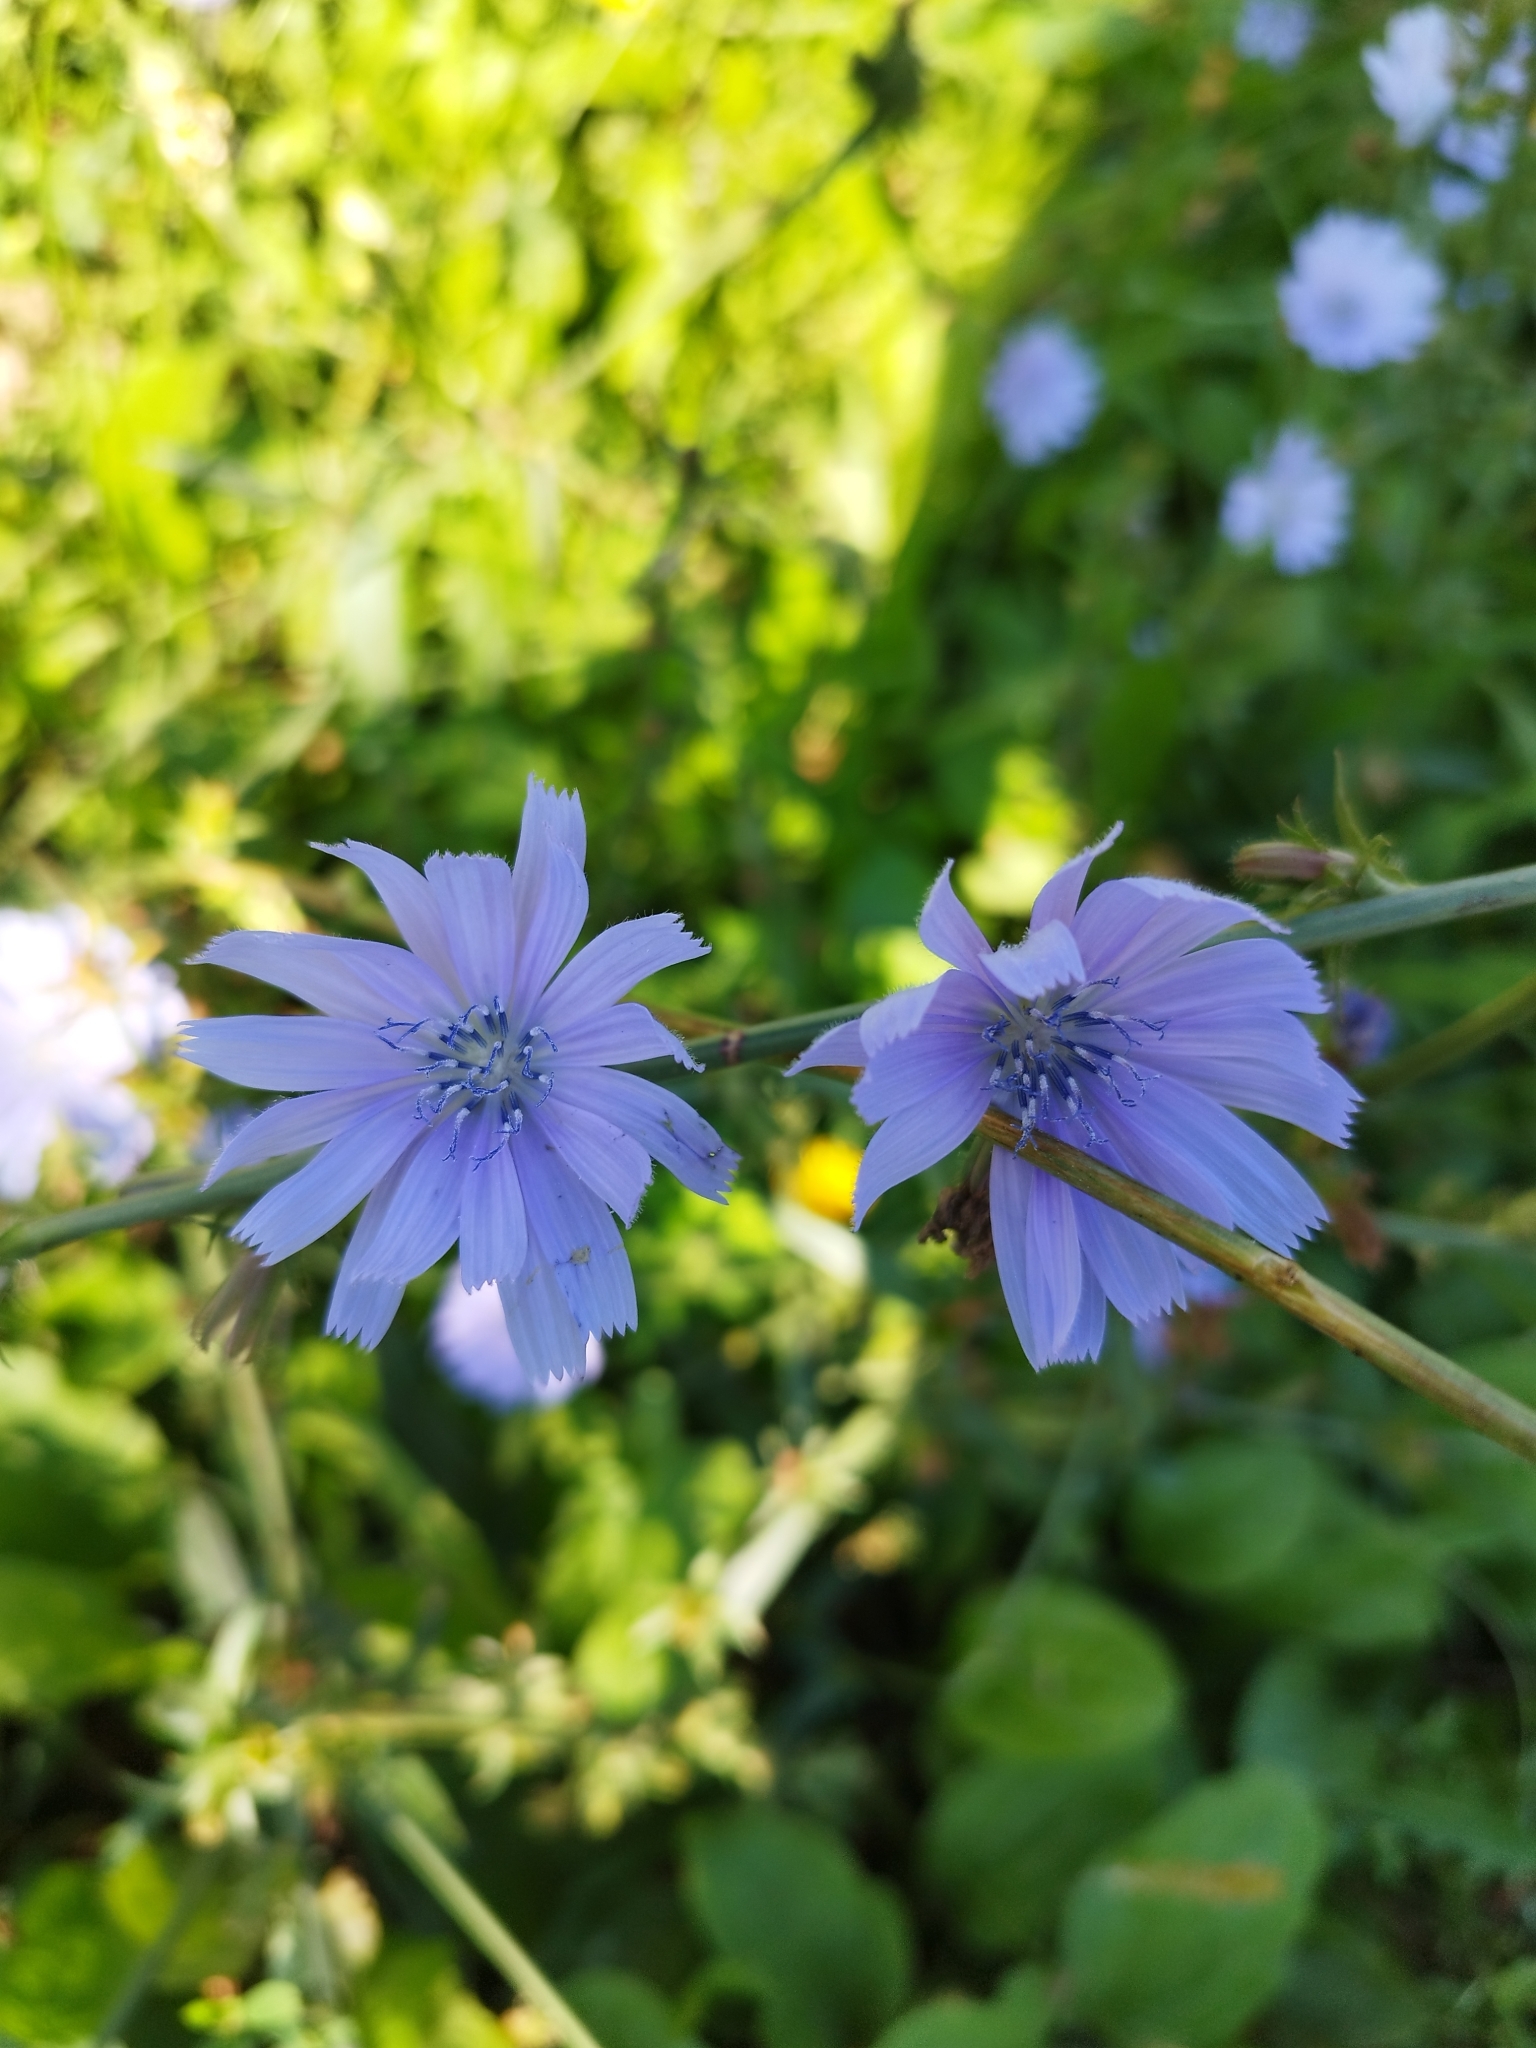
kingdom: Plantae
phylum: Tracheophyta
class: Magnoliopsida
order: Asterales
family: Asteraceae
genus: Cichorium
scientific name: Cichorium intybus
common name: Chicory
